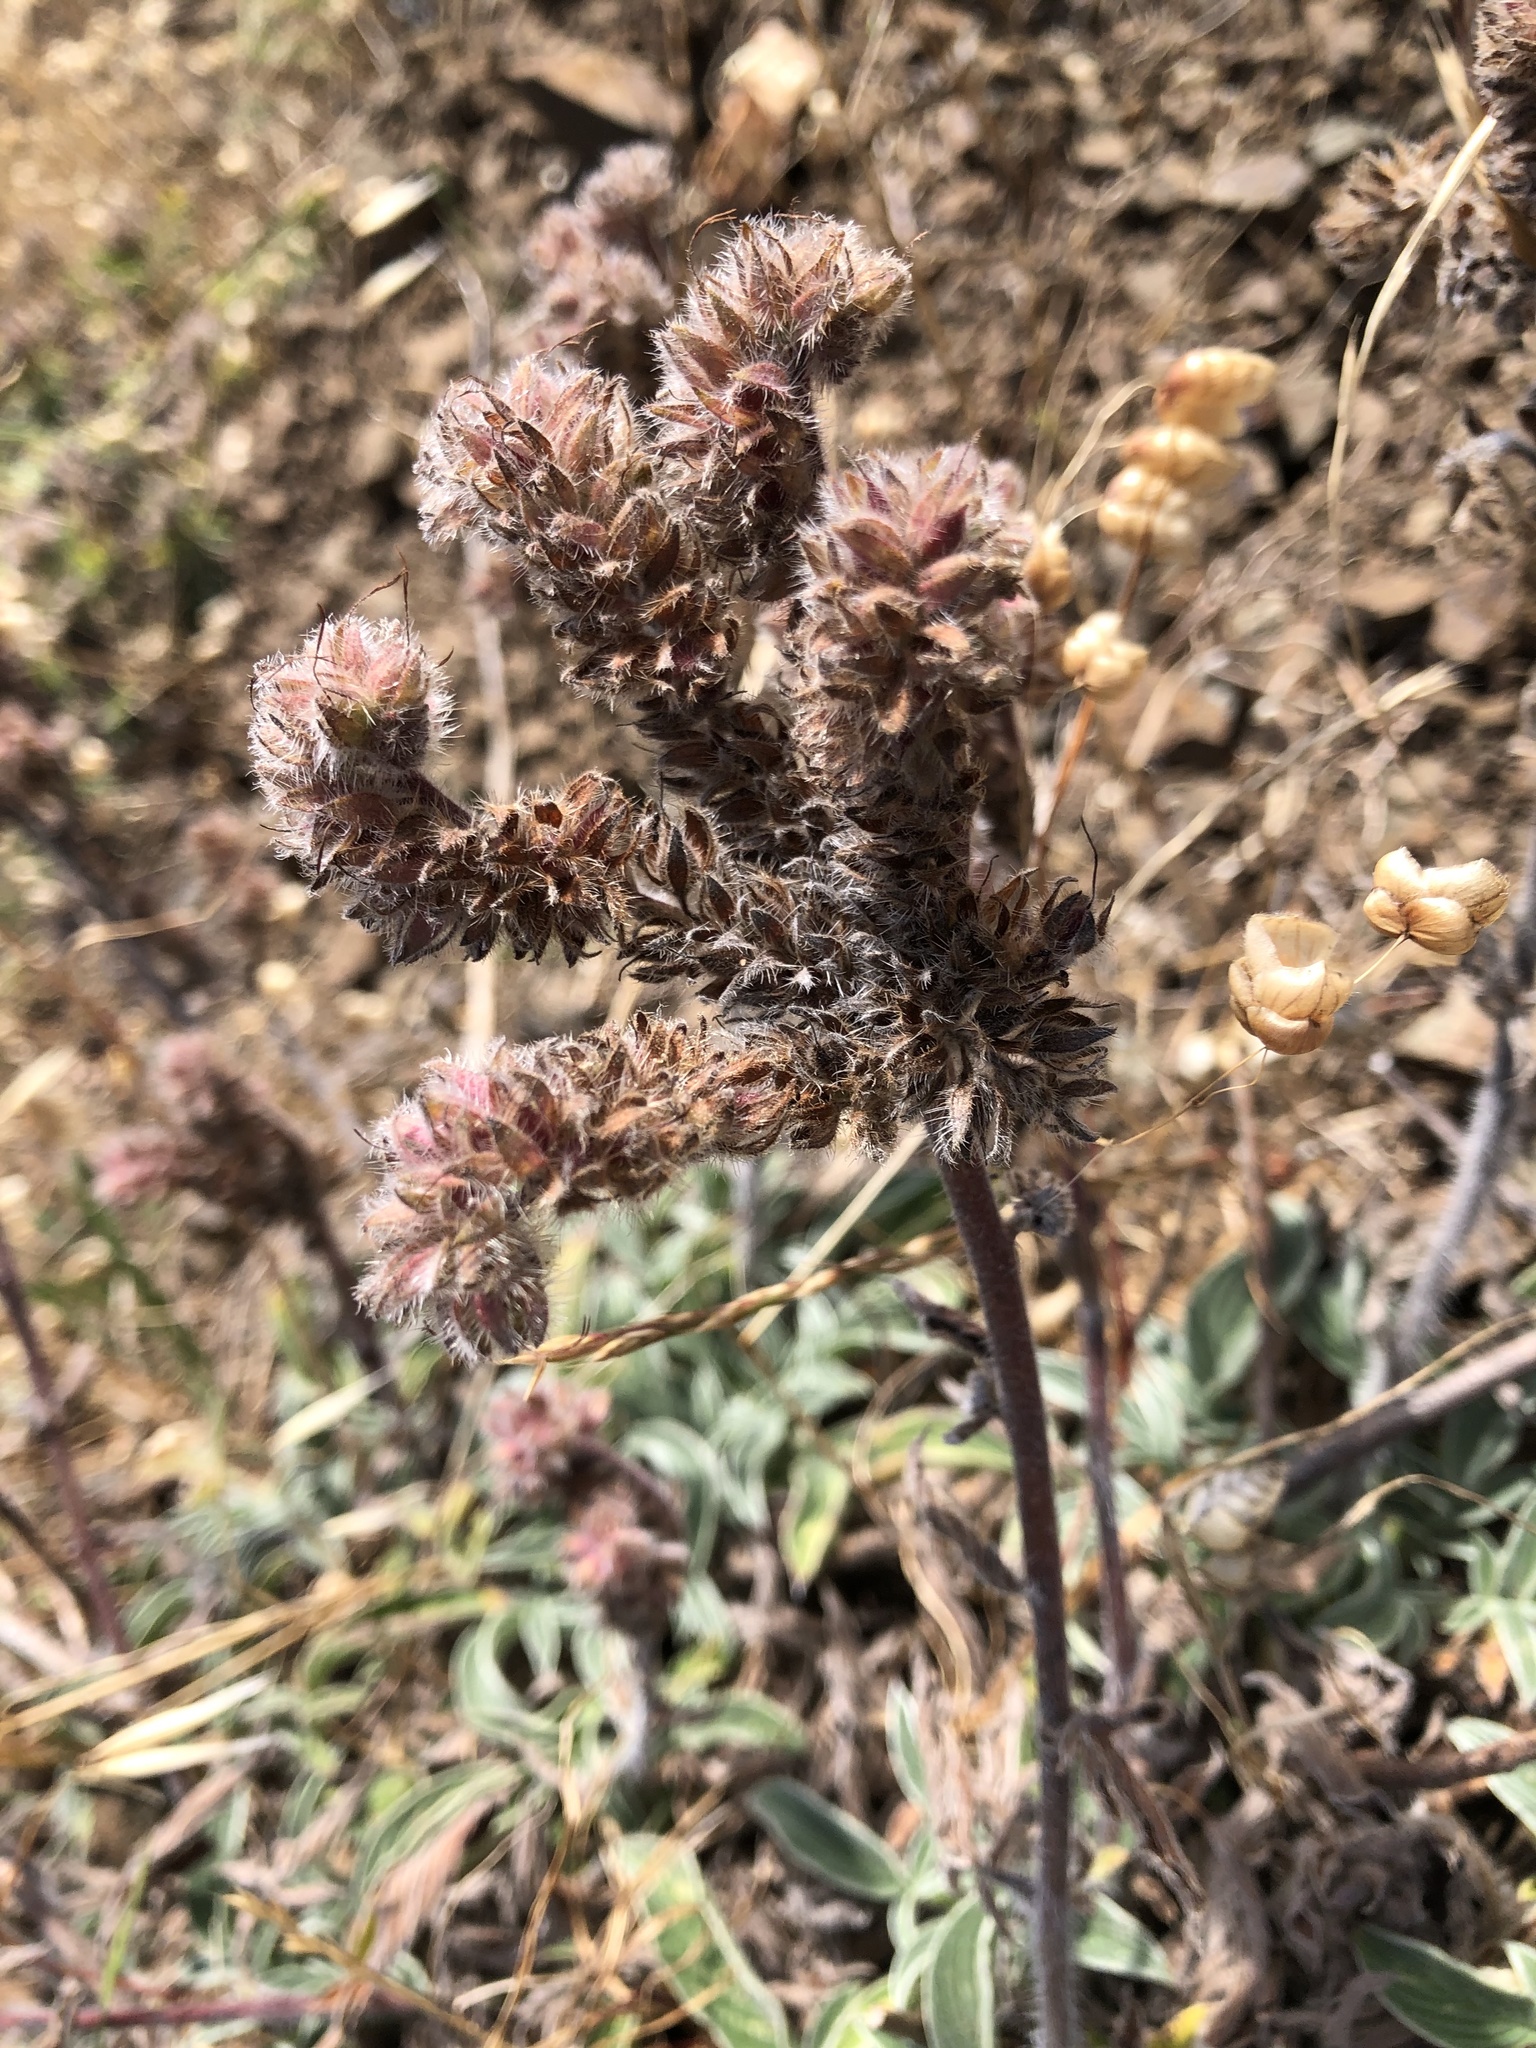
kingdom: Plantae
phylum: Tracheophyta
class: Magnoliopsida
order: Boraginales
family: Hydrophyllaceae
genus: Phacelia
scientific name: Phacelia californica
